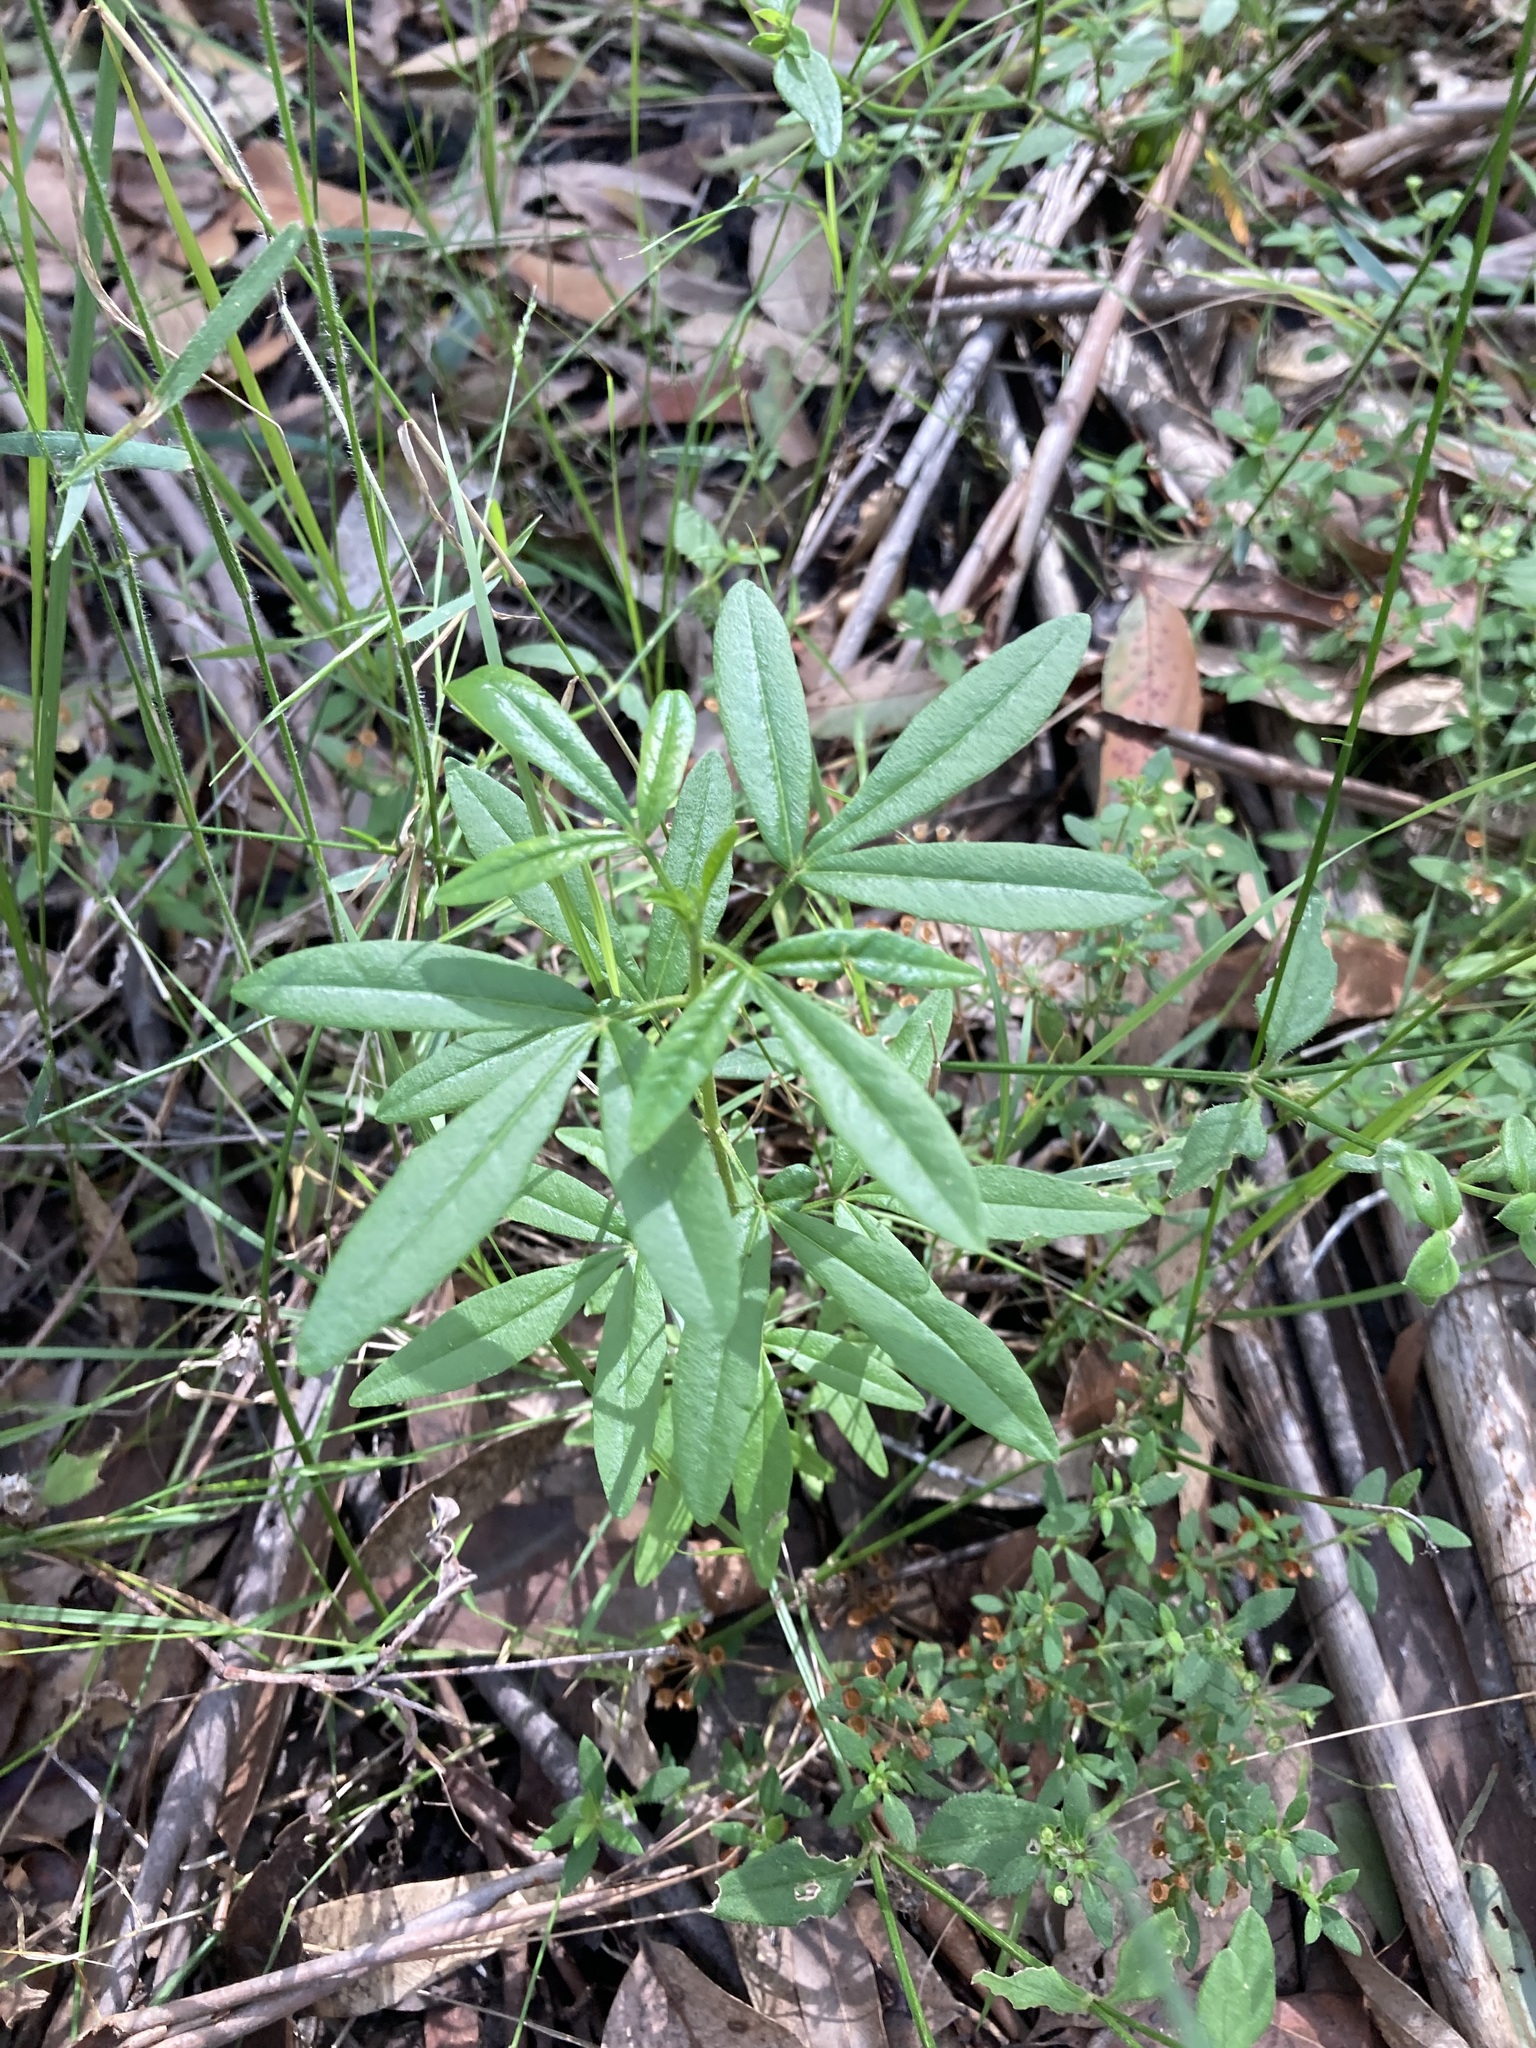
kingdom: Plantae
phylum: Tracheophyta
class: Magnoliopsida
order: Sapindales
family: Rutaceae
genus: Zieria
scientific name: Zieria smithii
